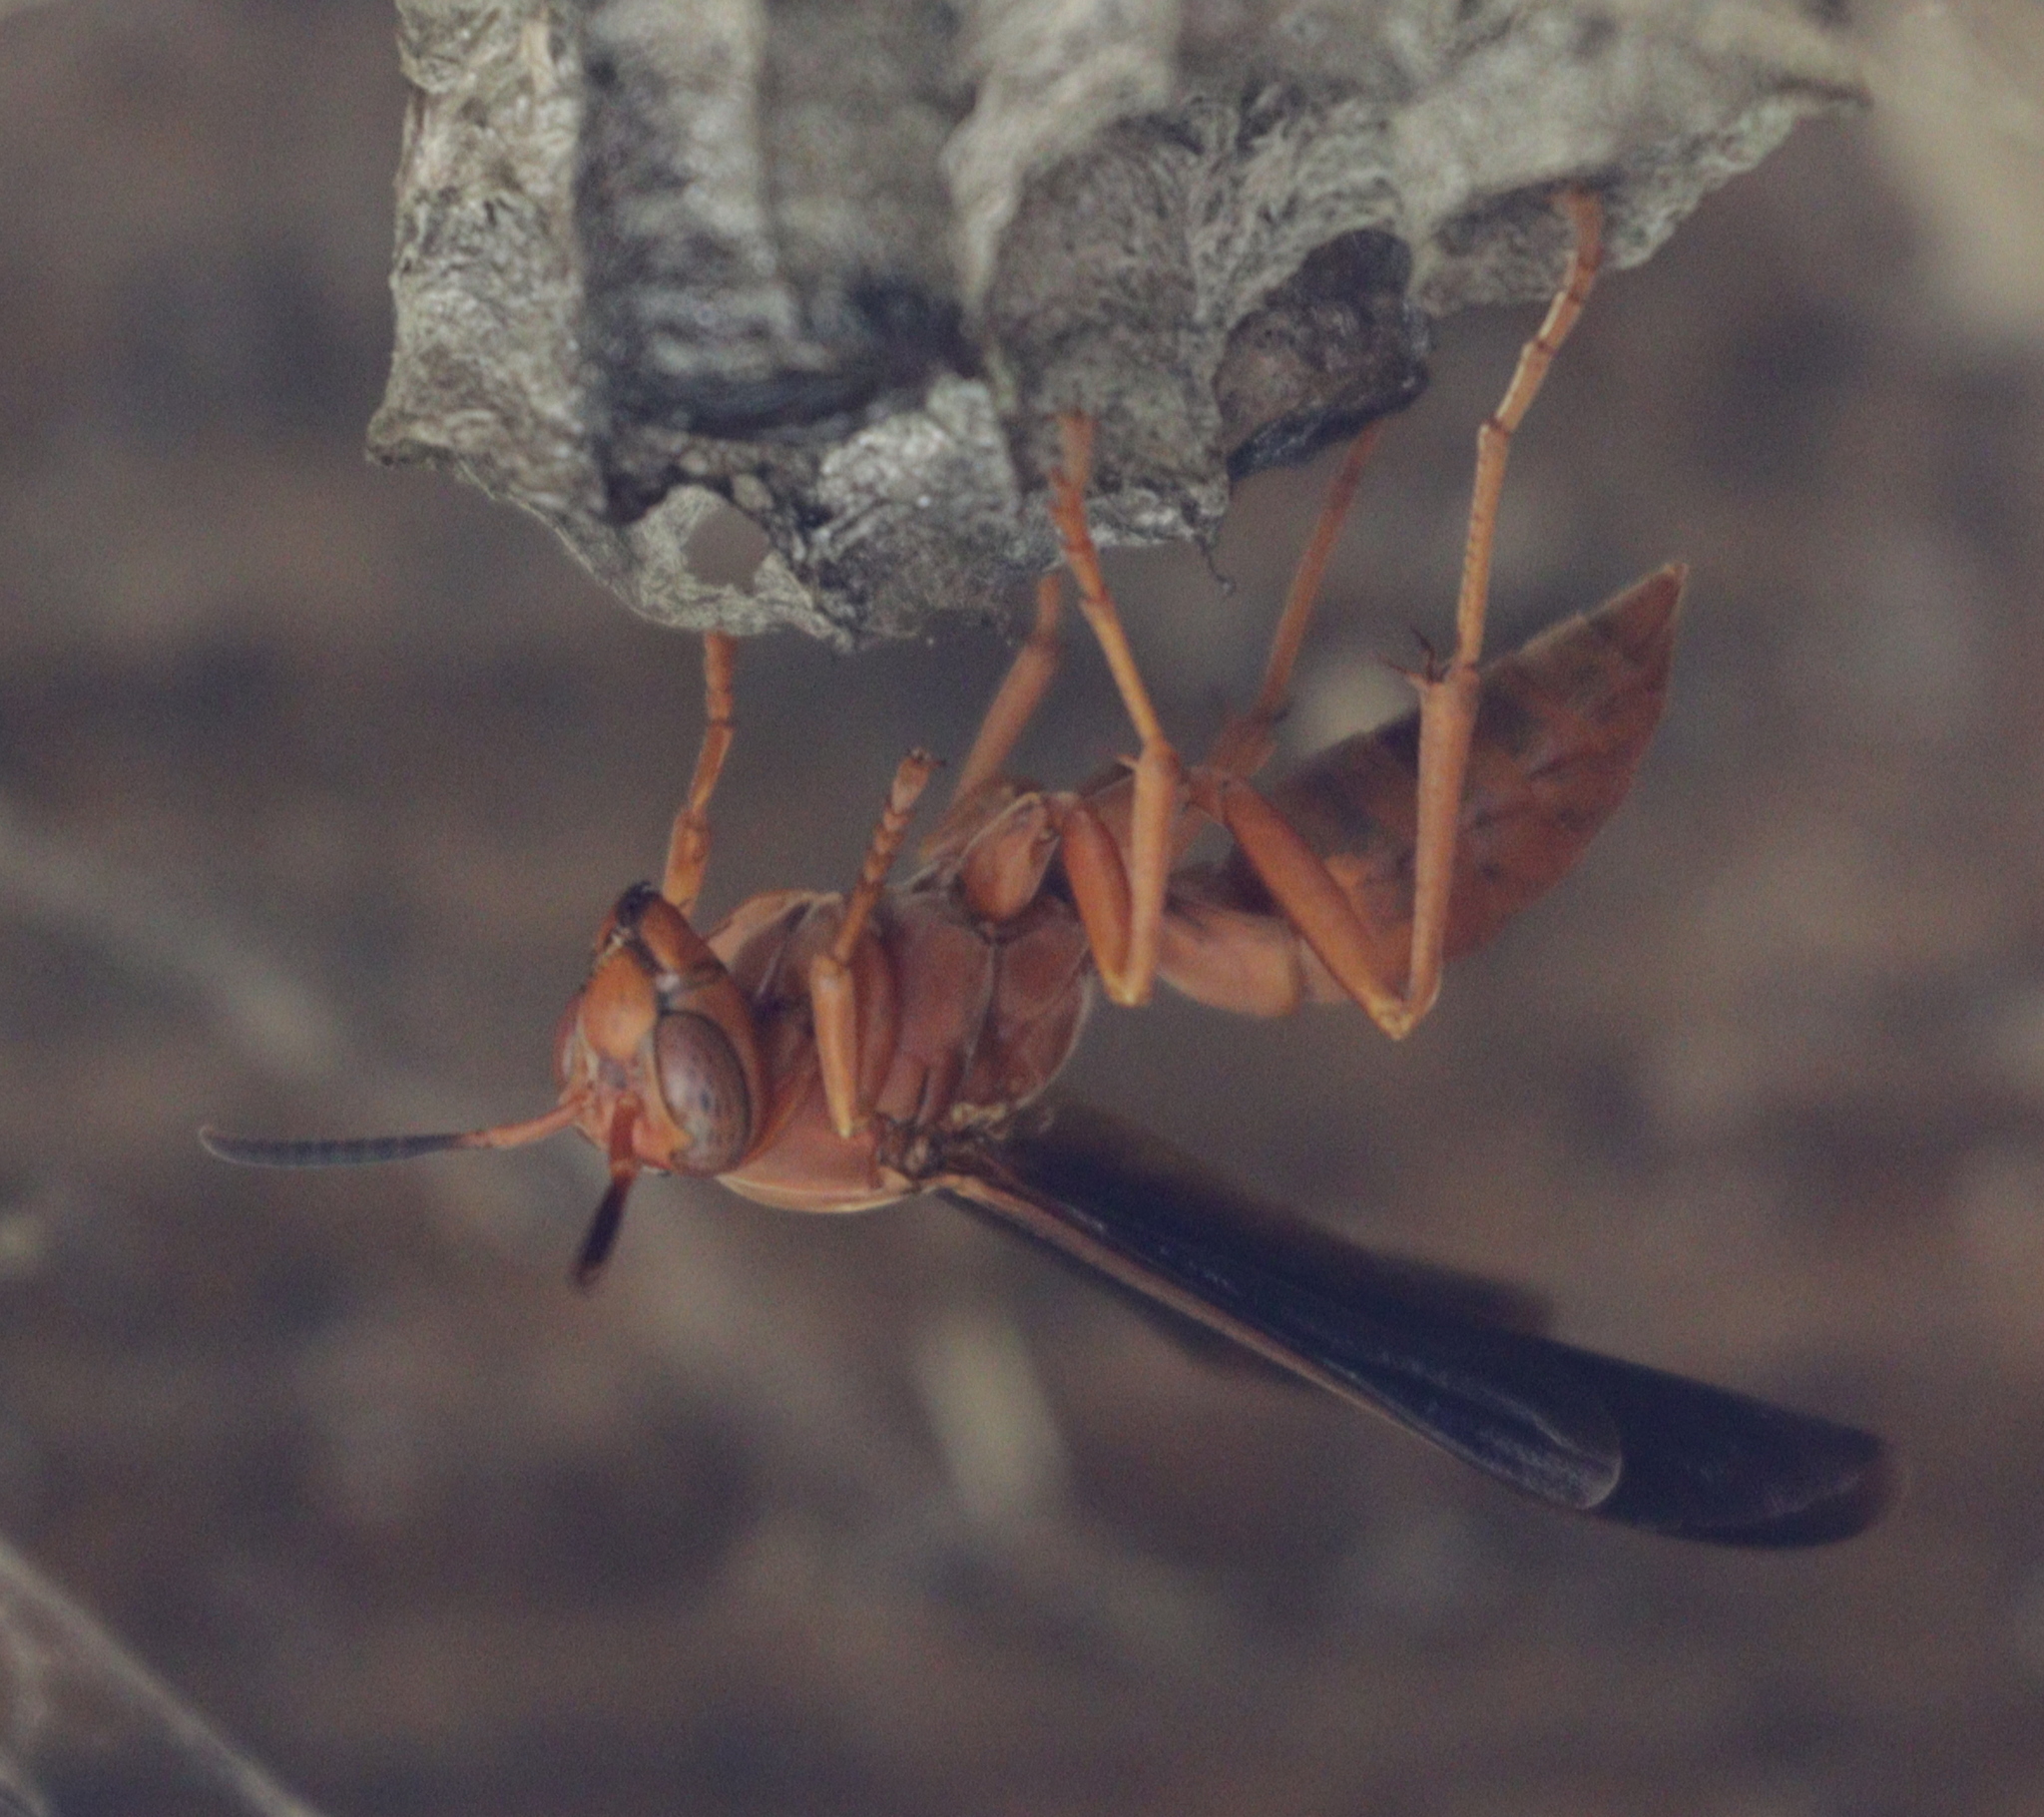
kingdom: Animalia
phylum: Arthropoda
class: Insecta
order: Hymenoptera
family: Vespidae
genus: Fuscopolistes
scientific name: Fuscopolistes
